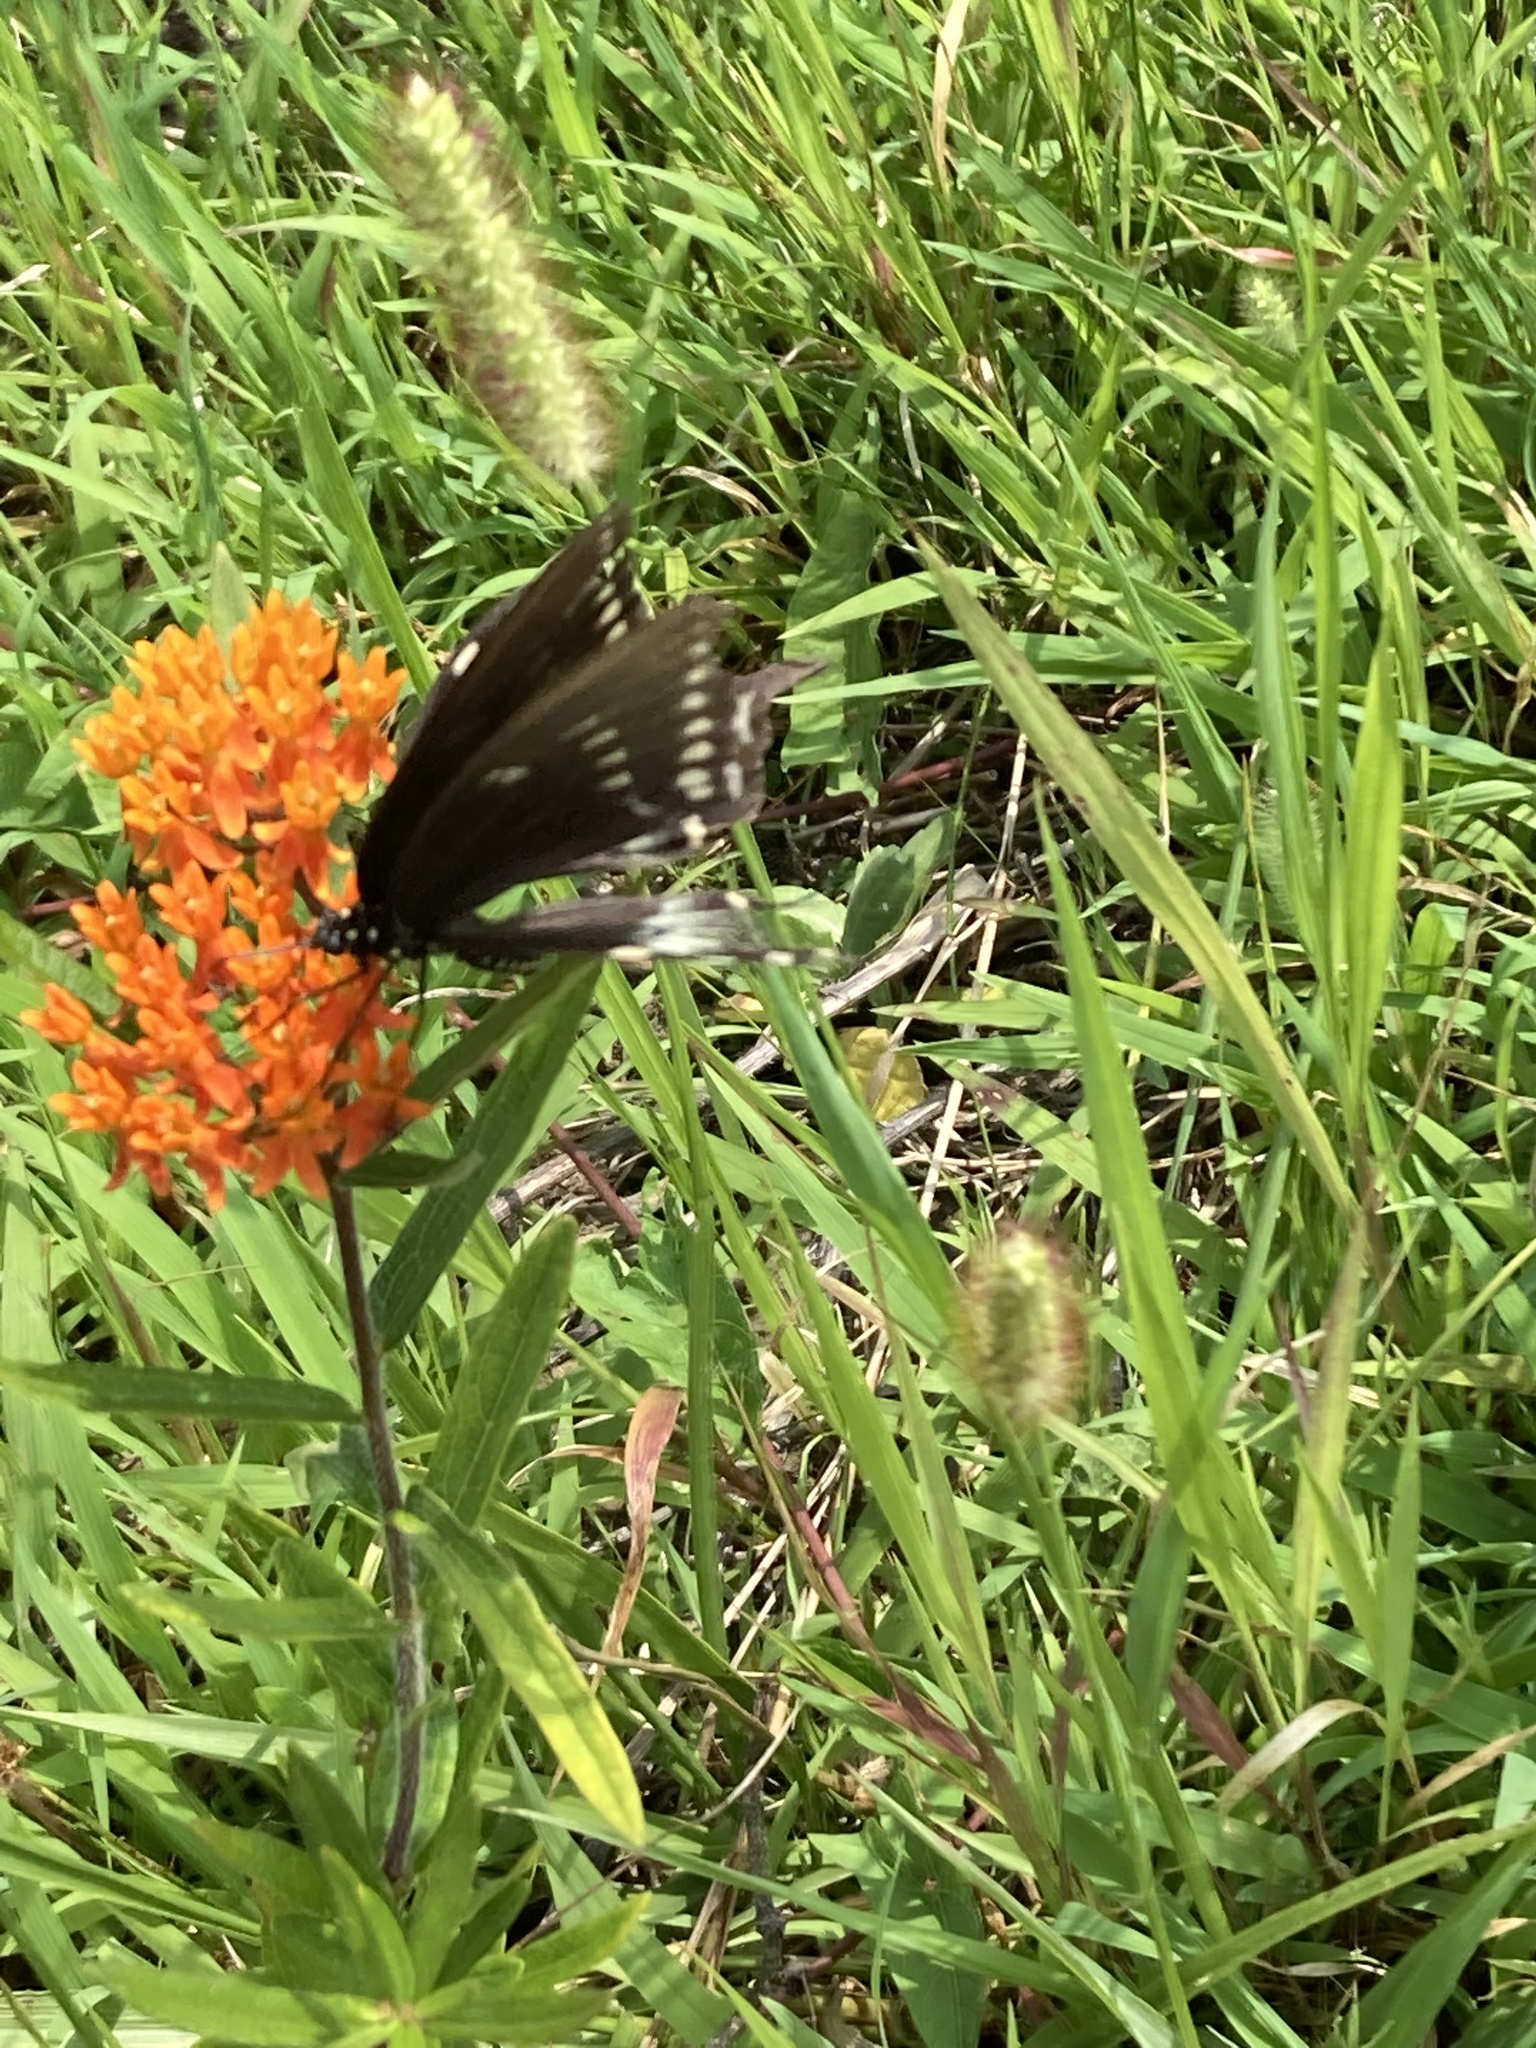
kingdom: Animalia
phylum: Arthropoda
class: Insecta
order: Lepidoptera
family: Papilionidae
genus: Papilio
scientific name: Papilio troilus
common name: Spicebush swallowtail
